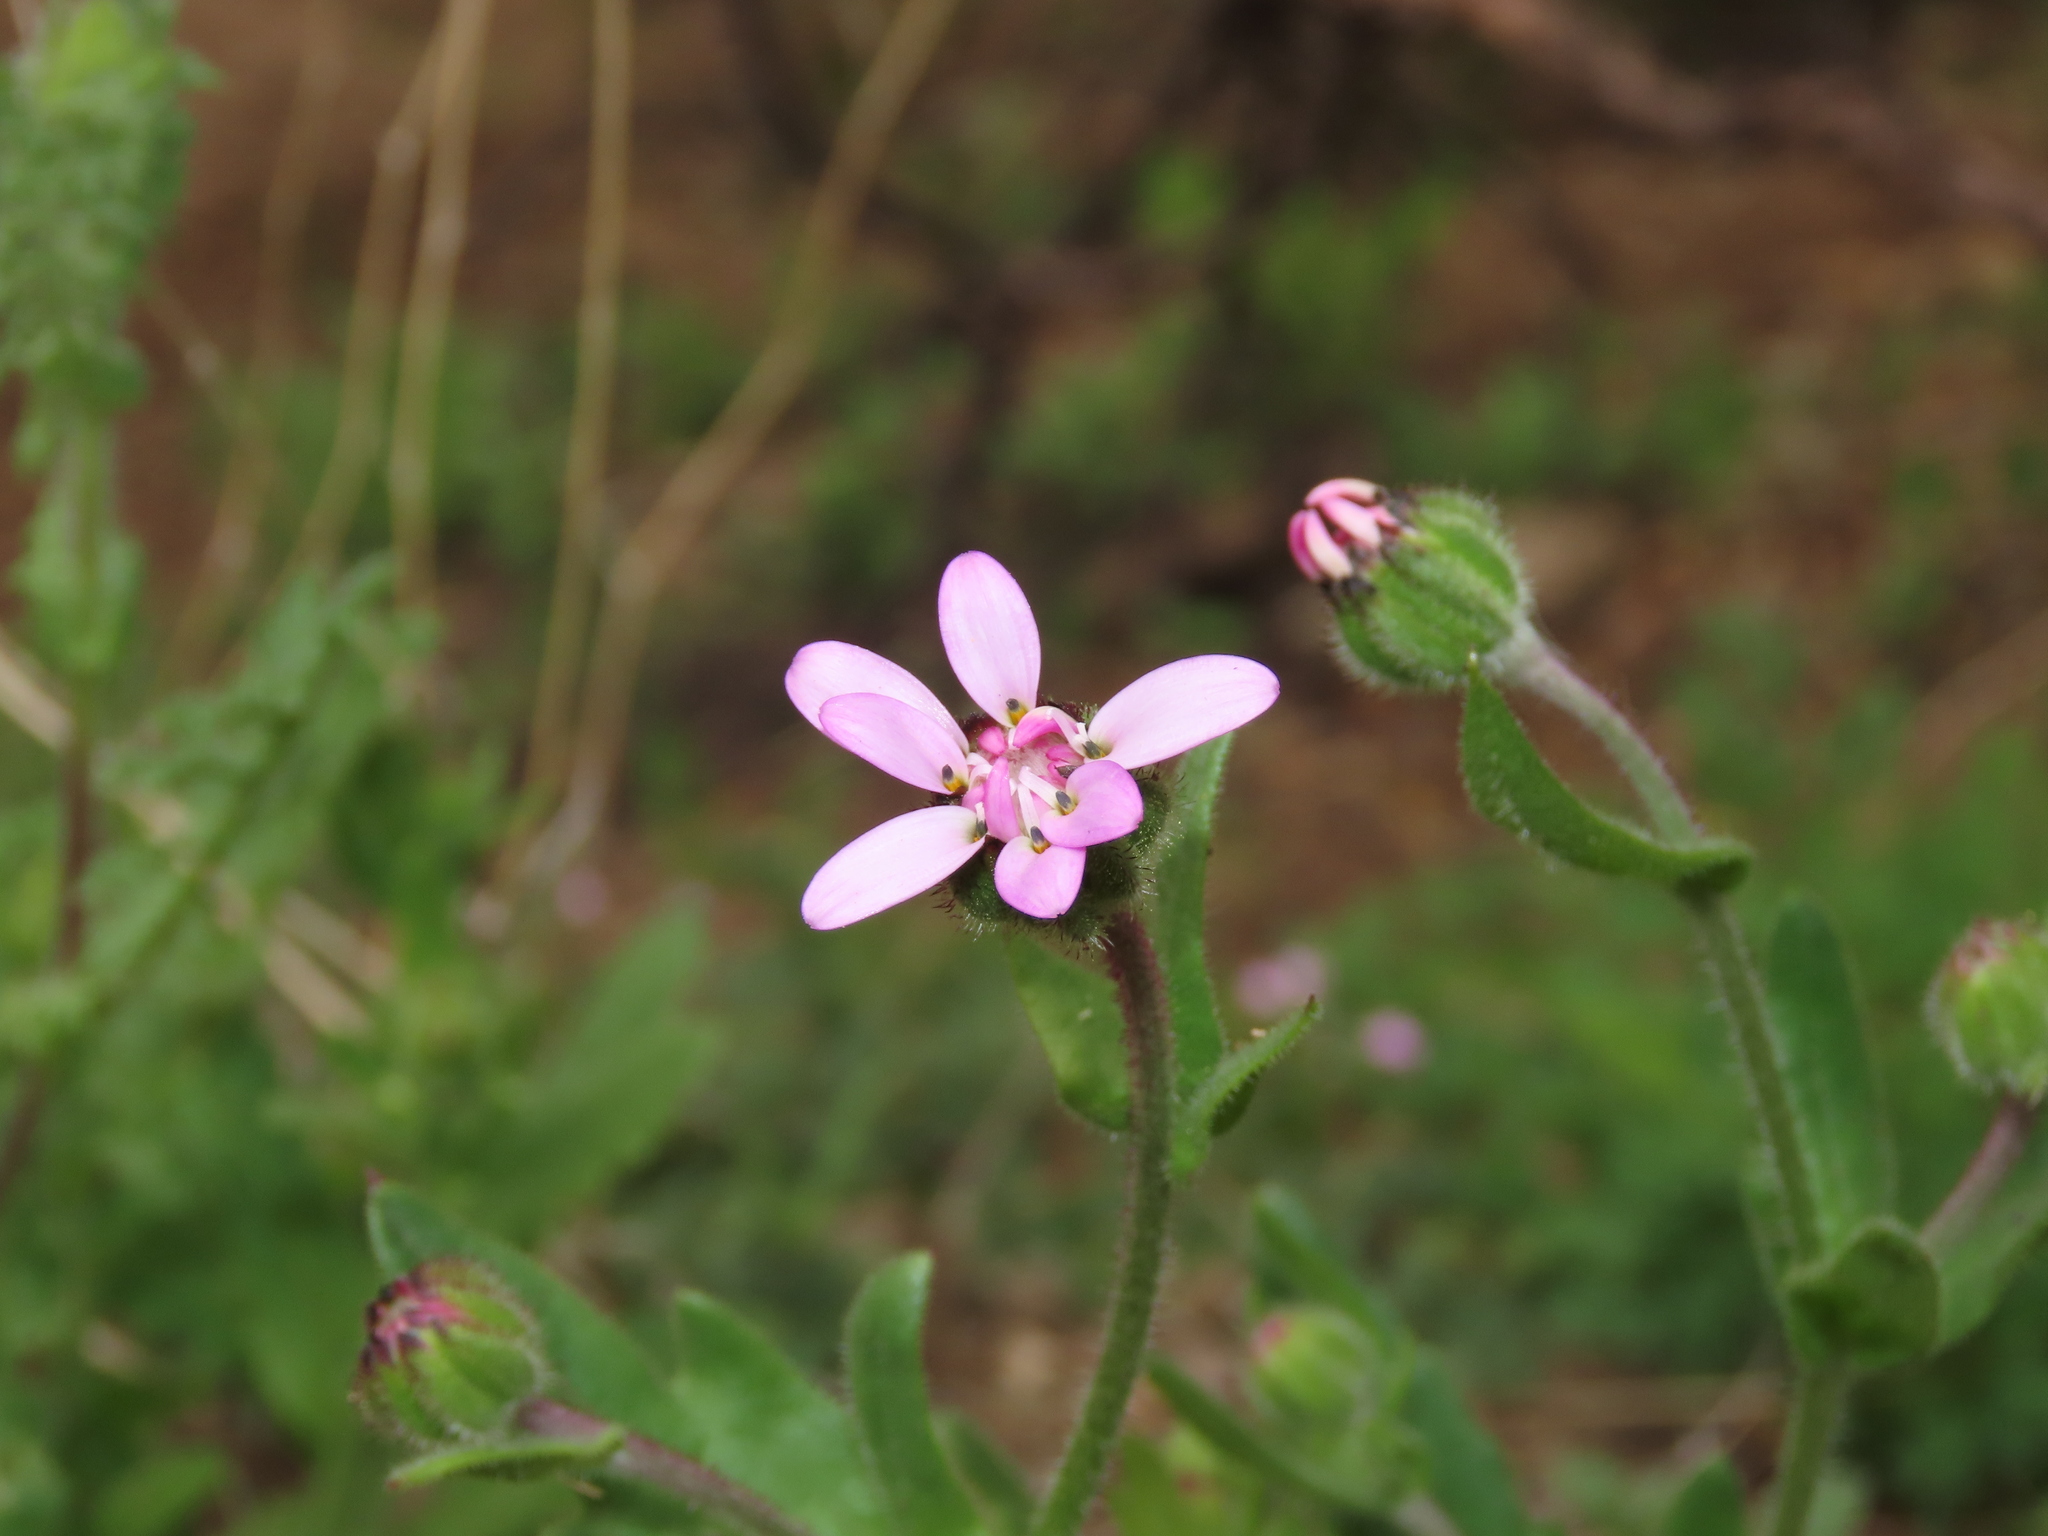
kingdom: Plantae
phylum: Tracheophyta
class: Magnoliopsida
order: Asterales
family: Asteraceae
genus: Leucheria
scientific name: Leucheria glandulosa
